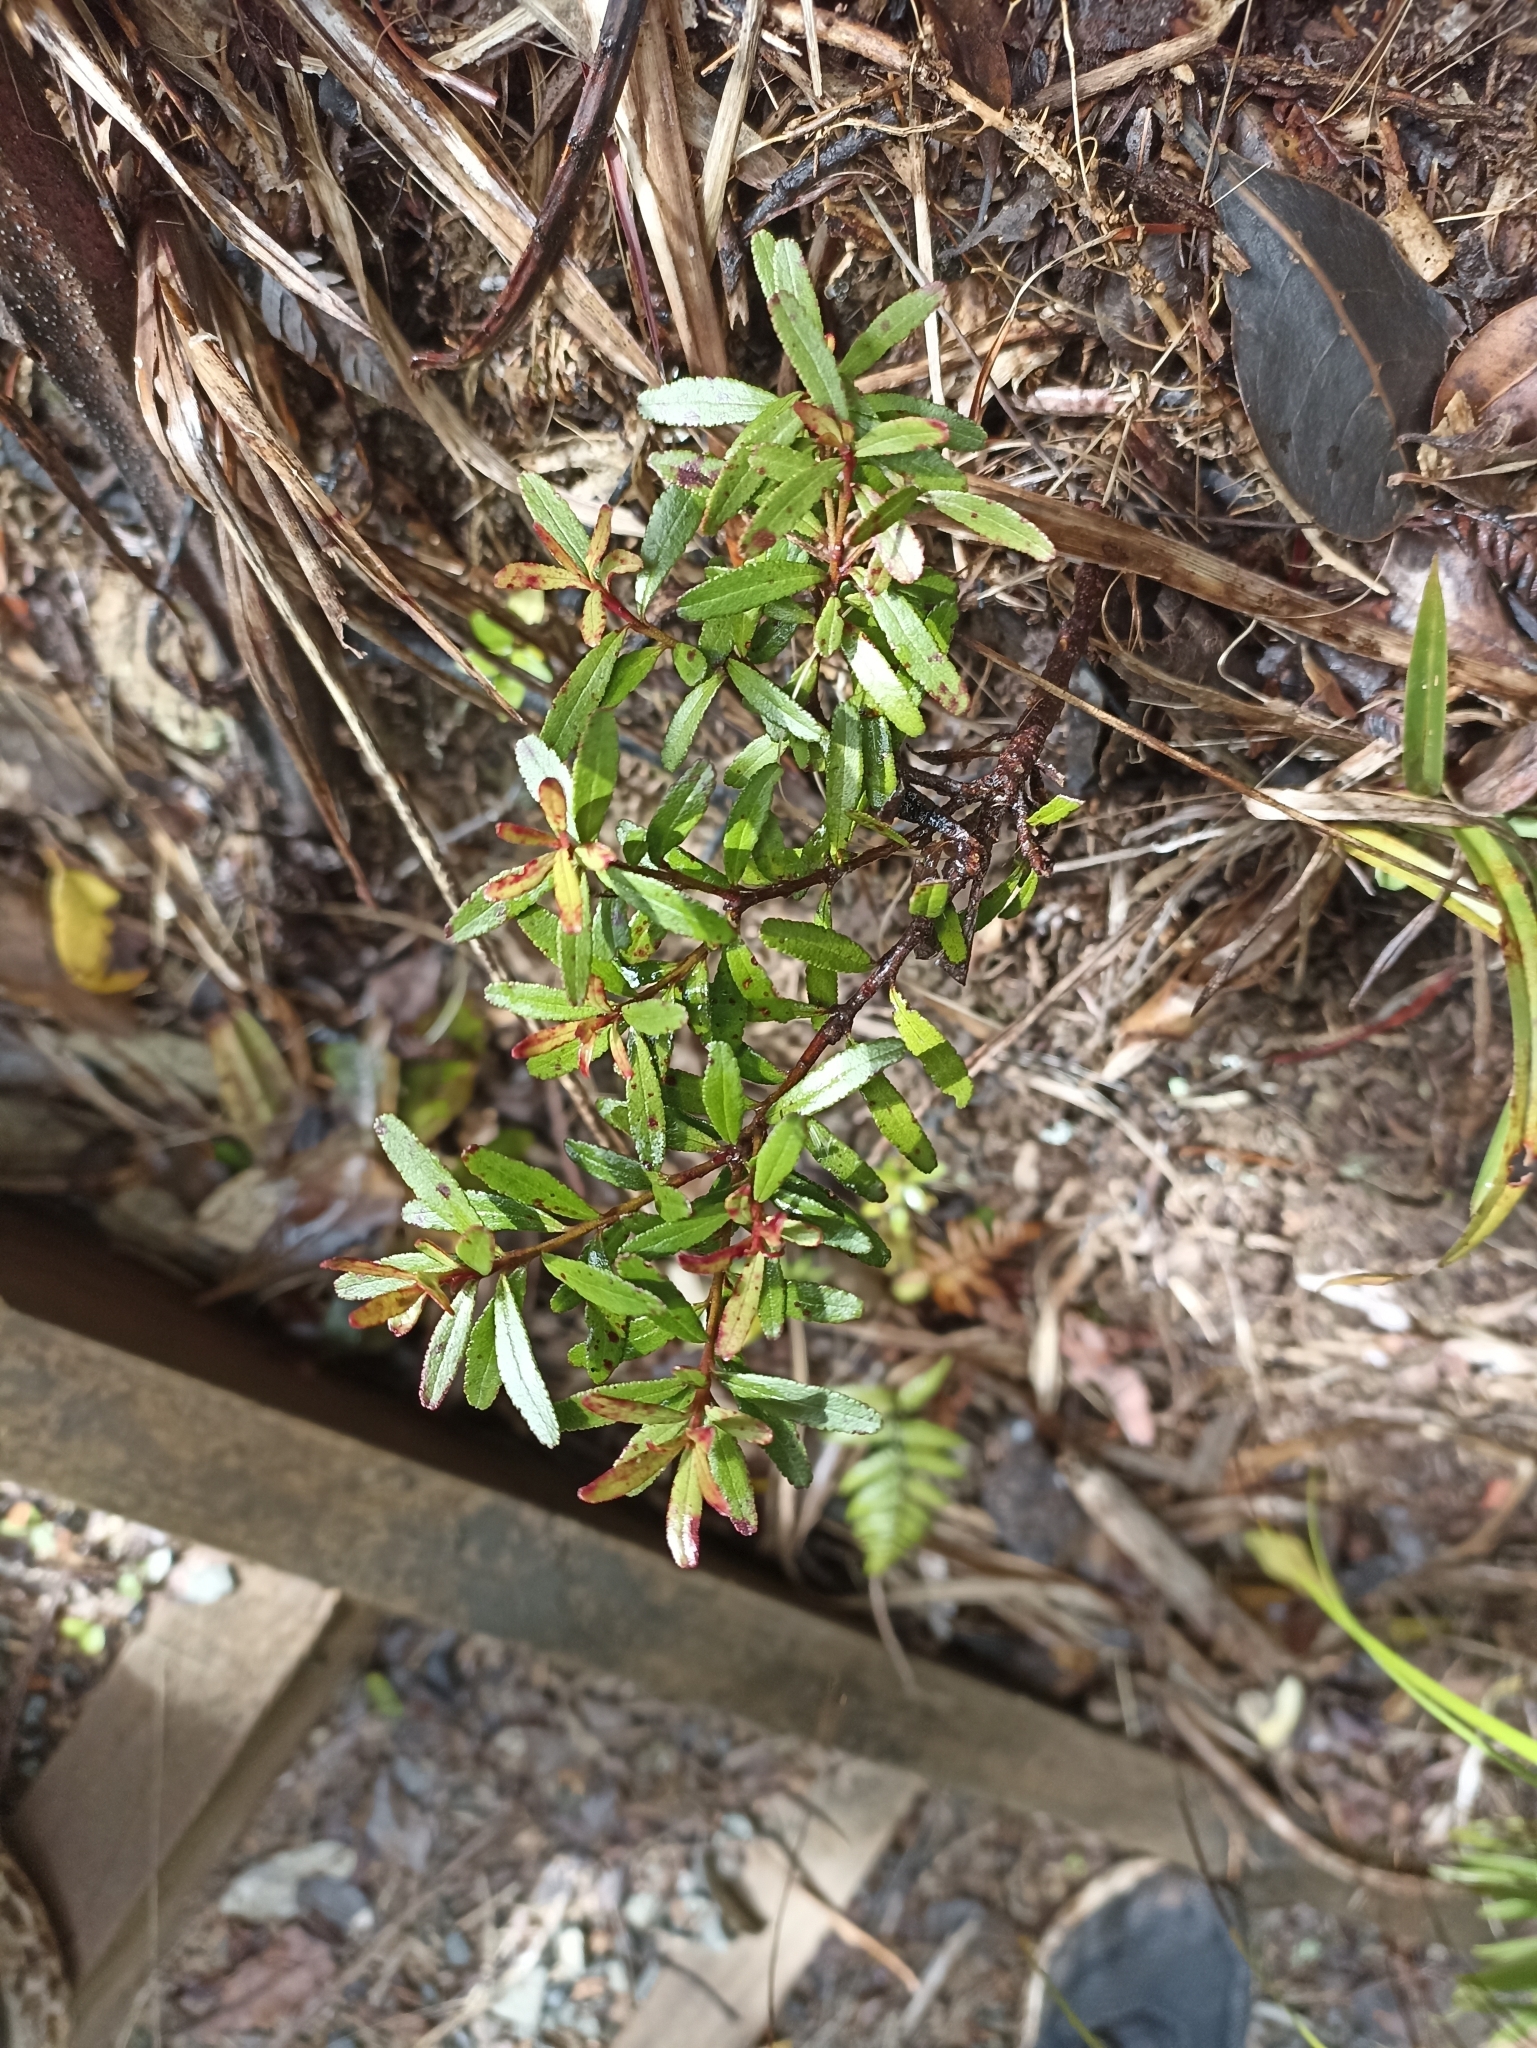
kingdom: Plantae
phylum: Tracheophyta
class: Magnoliopsida
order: Sapindales
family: Rutaceae
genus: Leionema
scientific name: Leionema nudum
